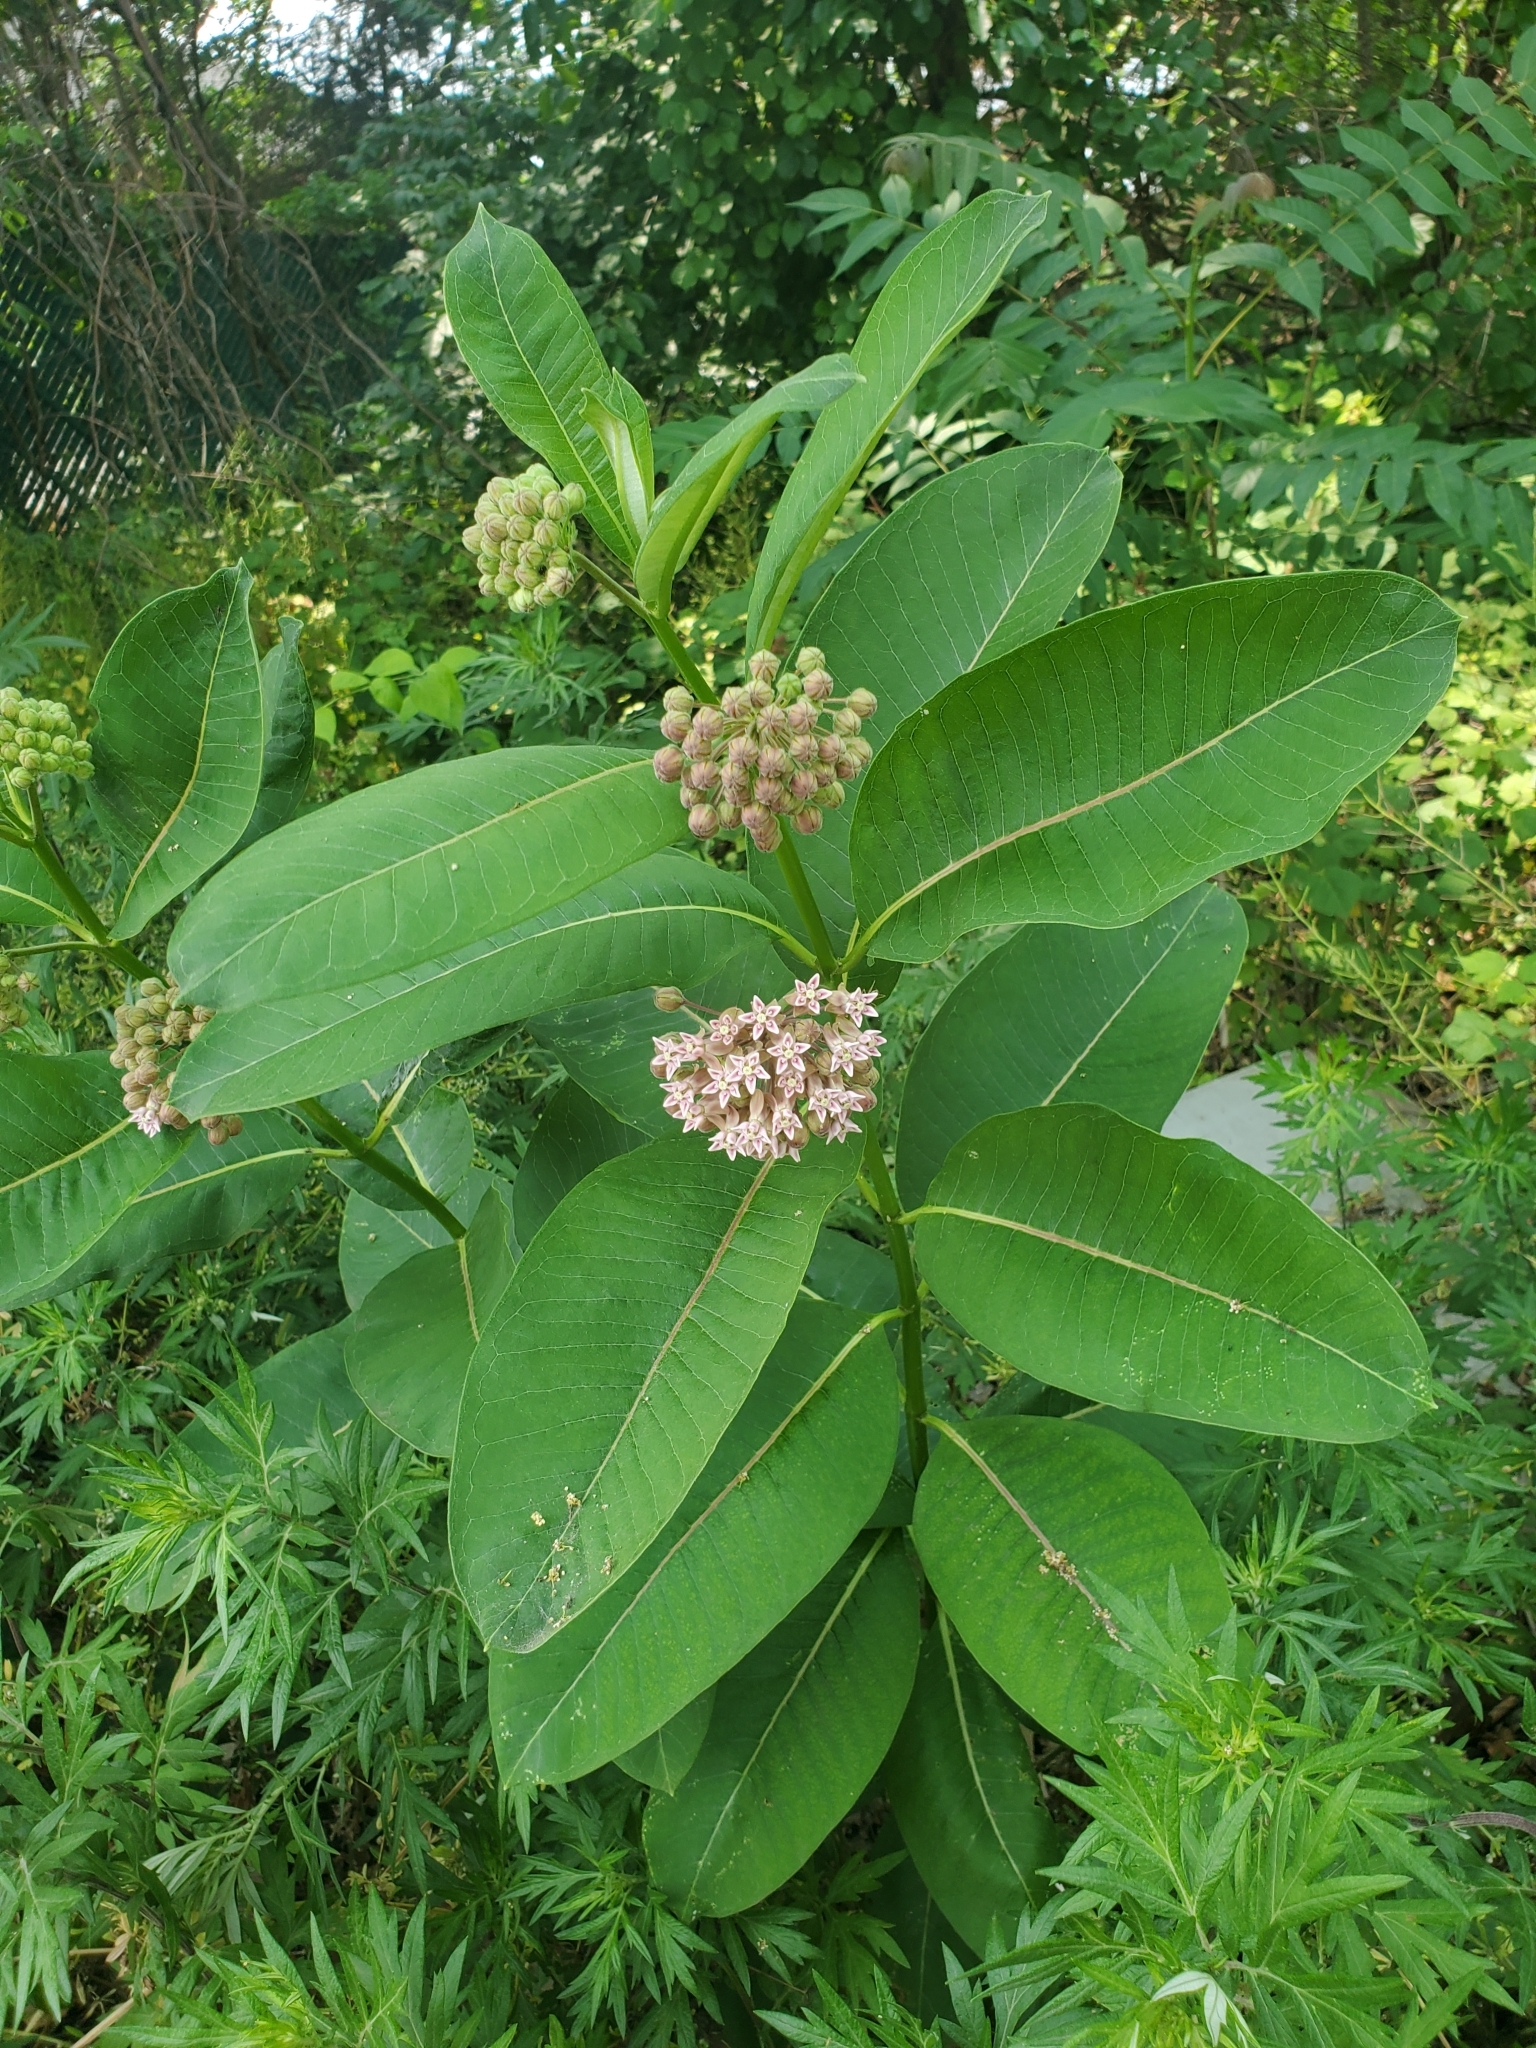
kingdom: Plantae
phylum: Tracheophyta
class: Magnoliopsida
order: Gentianales
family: Apocynaceae
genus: Asclepias
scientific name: Asclepias syriaca
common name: Common milkweed
